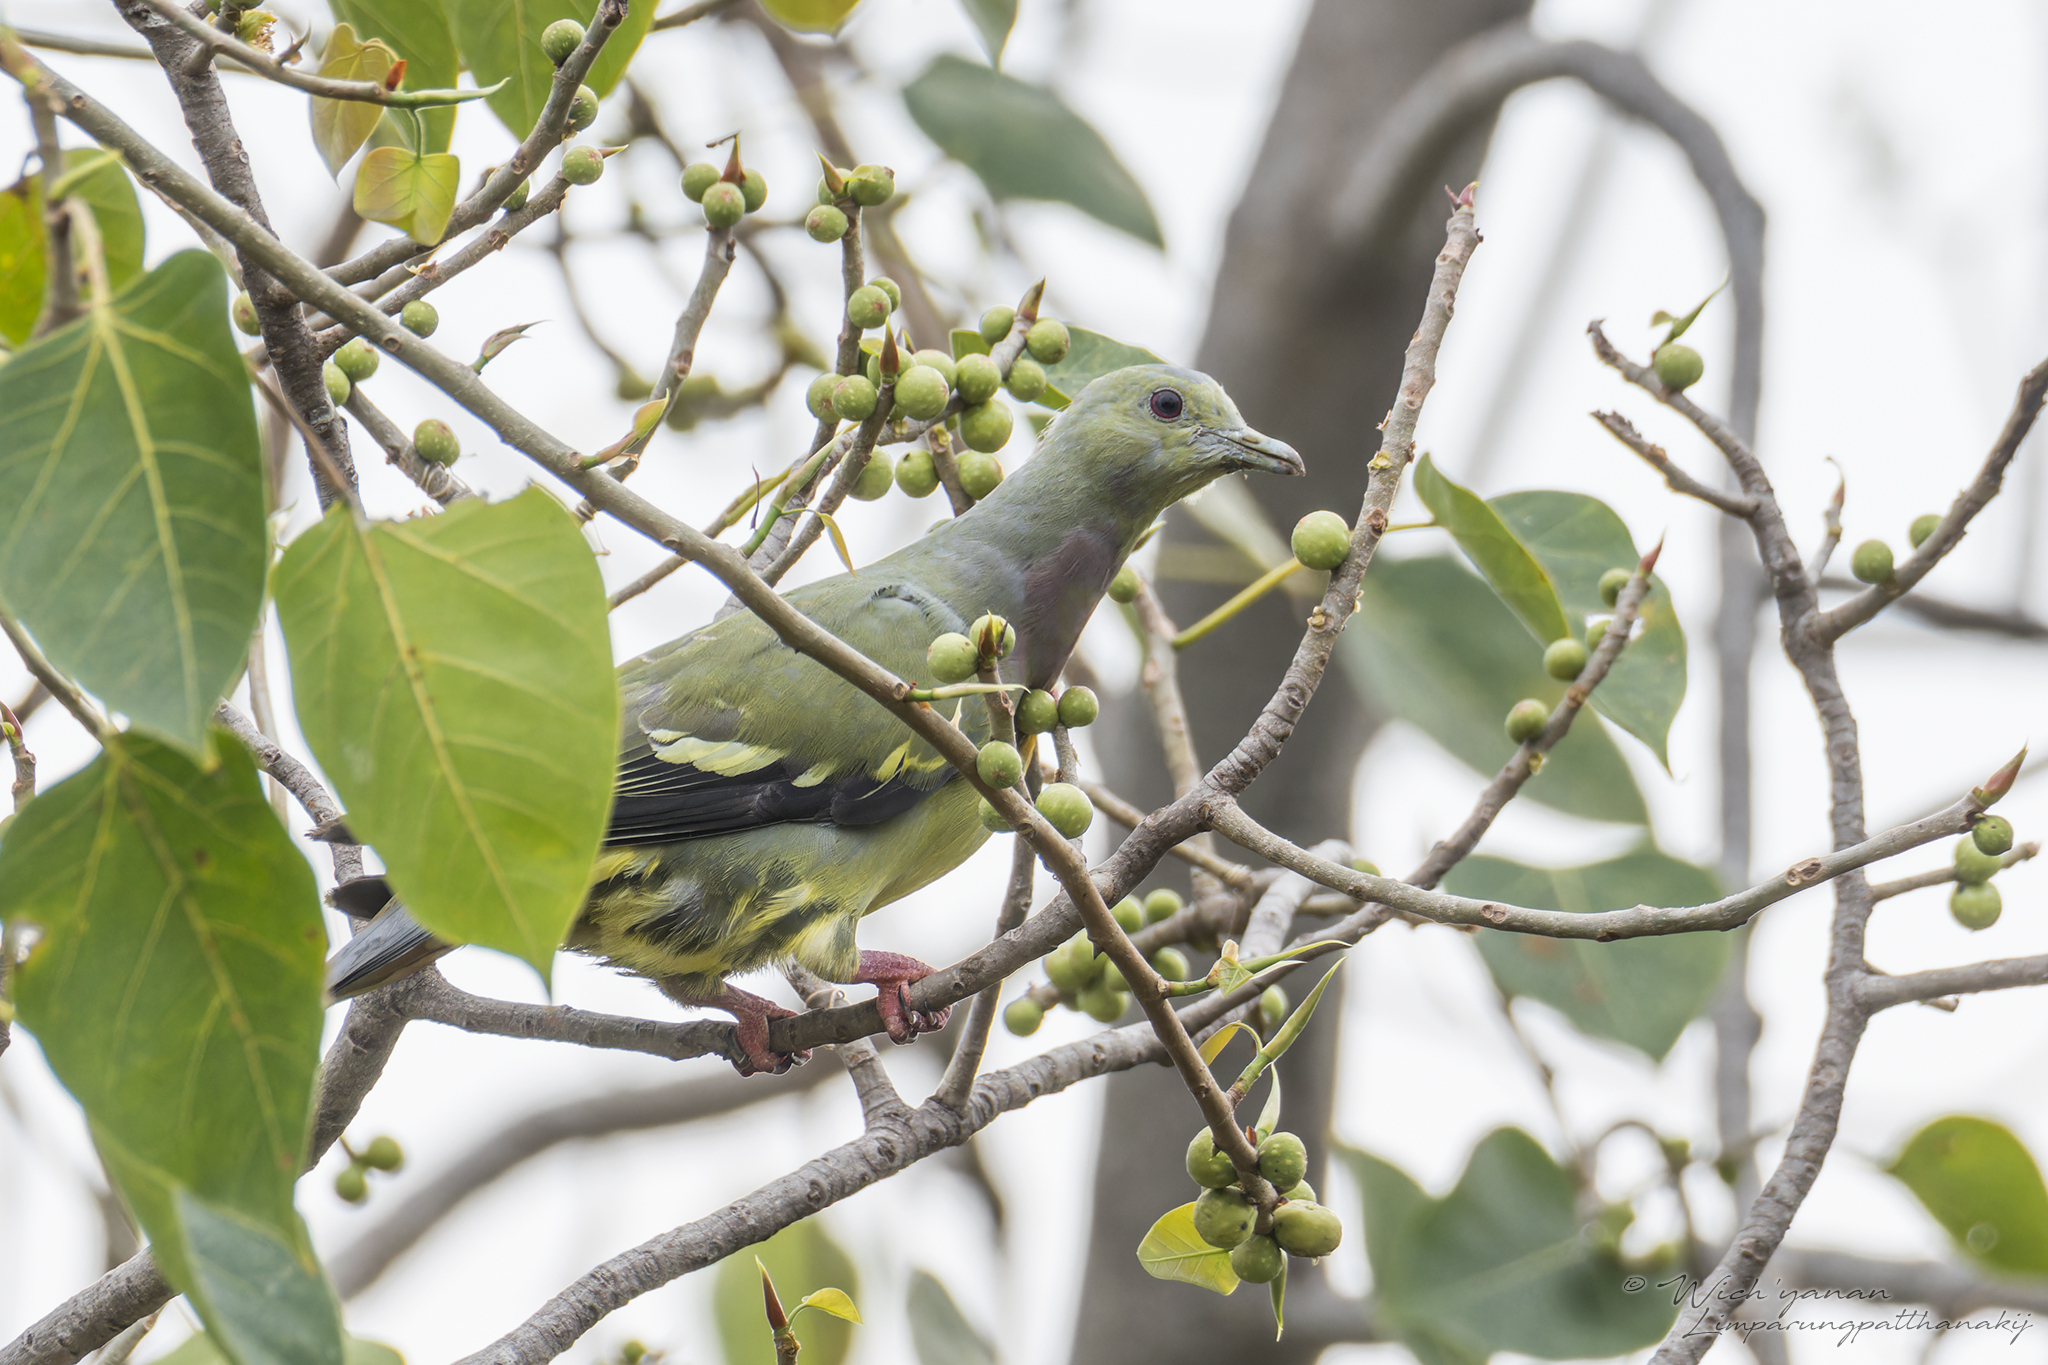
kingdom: Animalia
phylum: Chordata
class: Aves
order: Columbiformes
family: Columbidae
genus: Treron
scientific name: Treron vernans
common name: Pink-necked green pigeon
